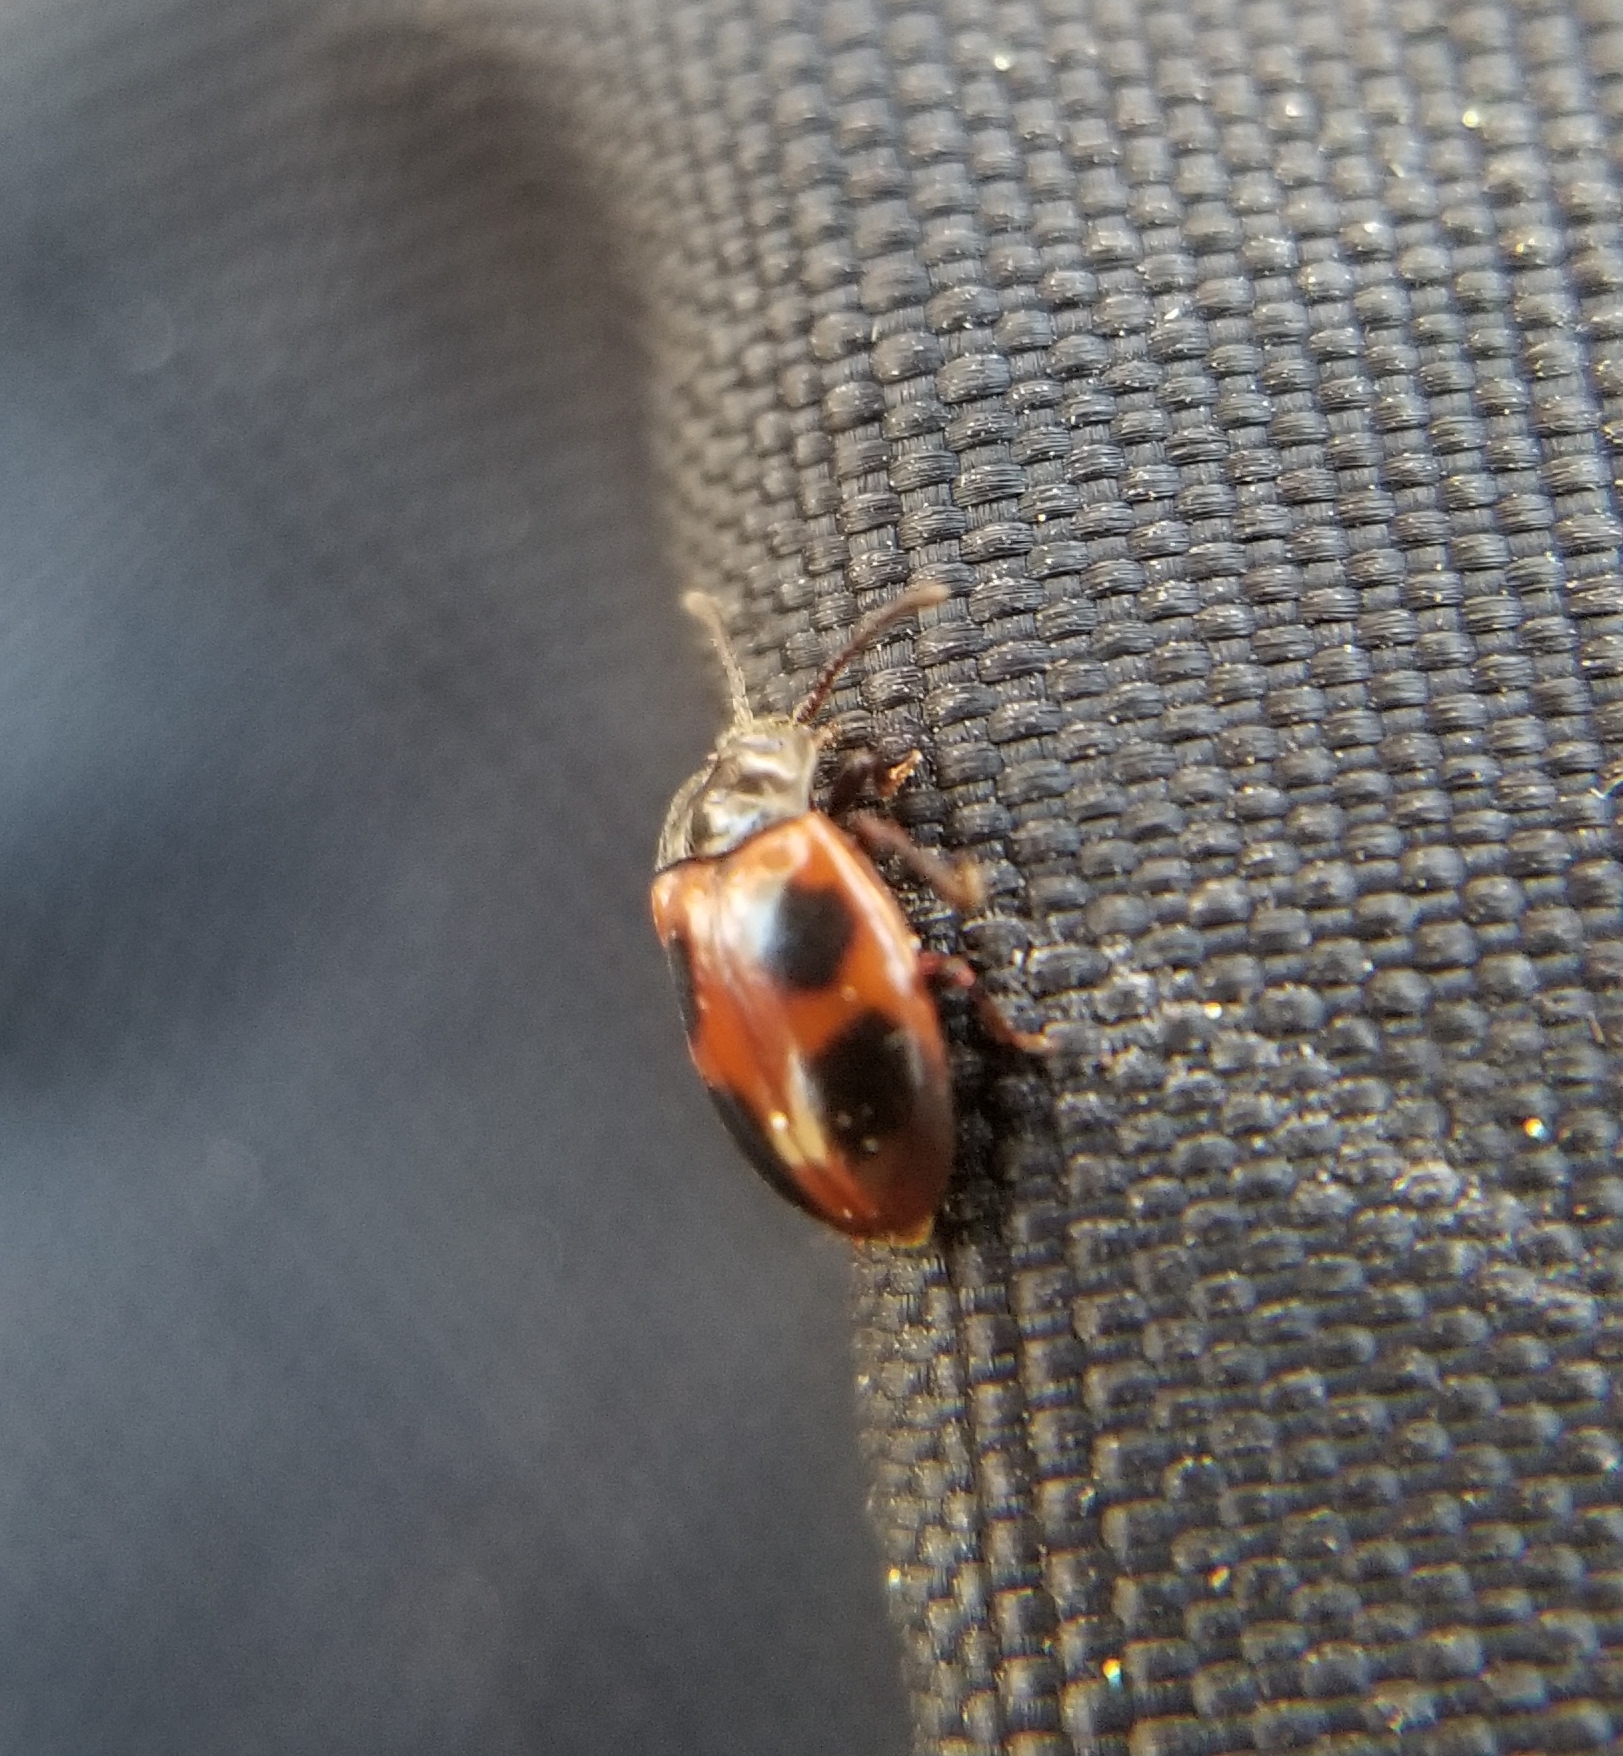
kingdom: Animalia
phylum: Arthropoda
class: Insecta
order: Coleoptera
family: Endomychidae
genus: Endomychus
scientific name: Endomychus limbatus
